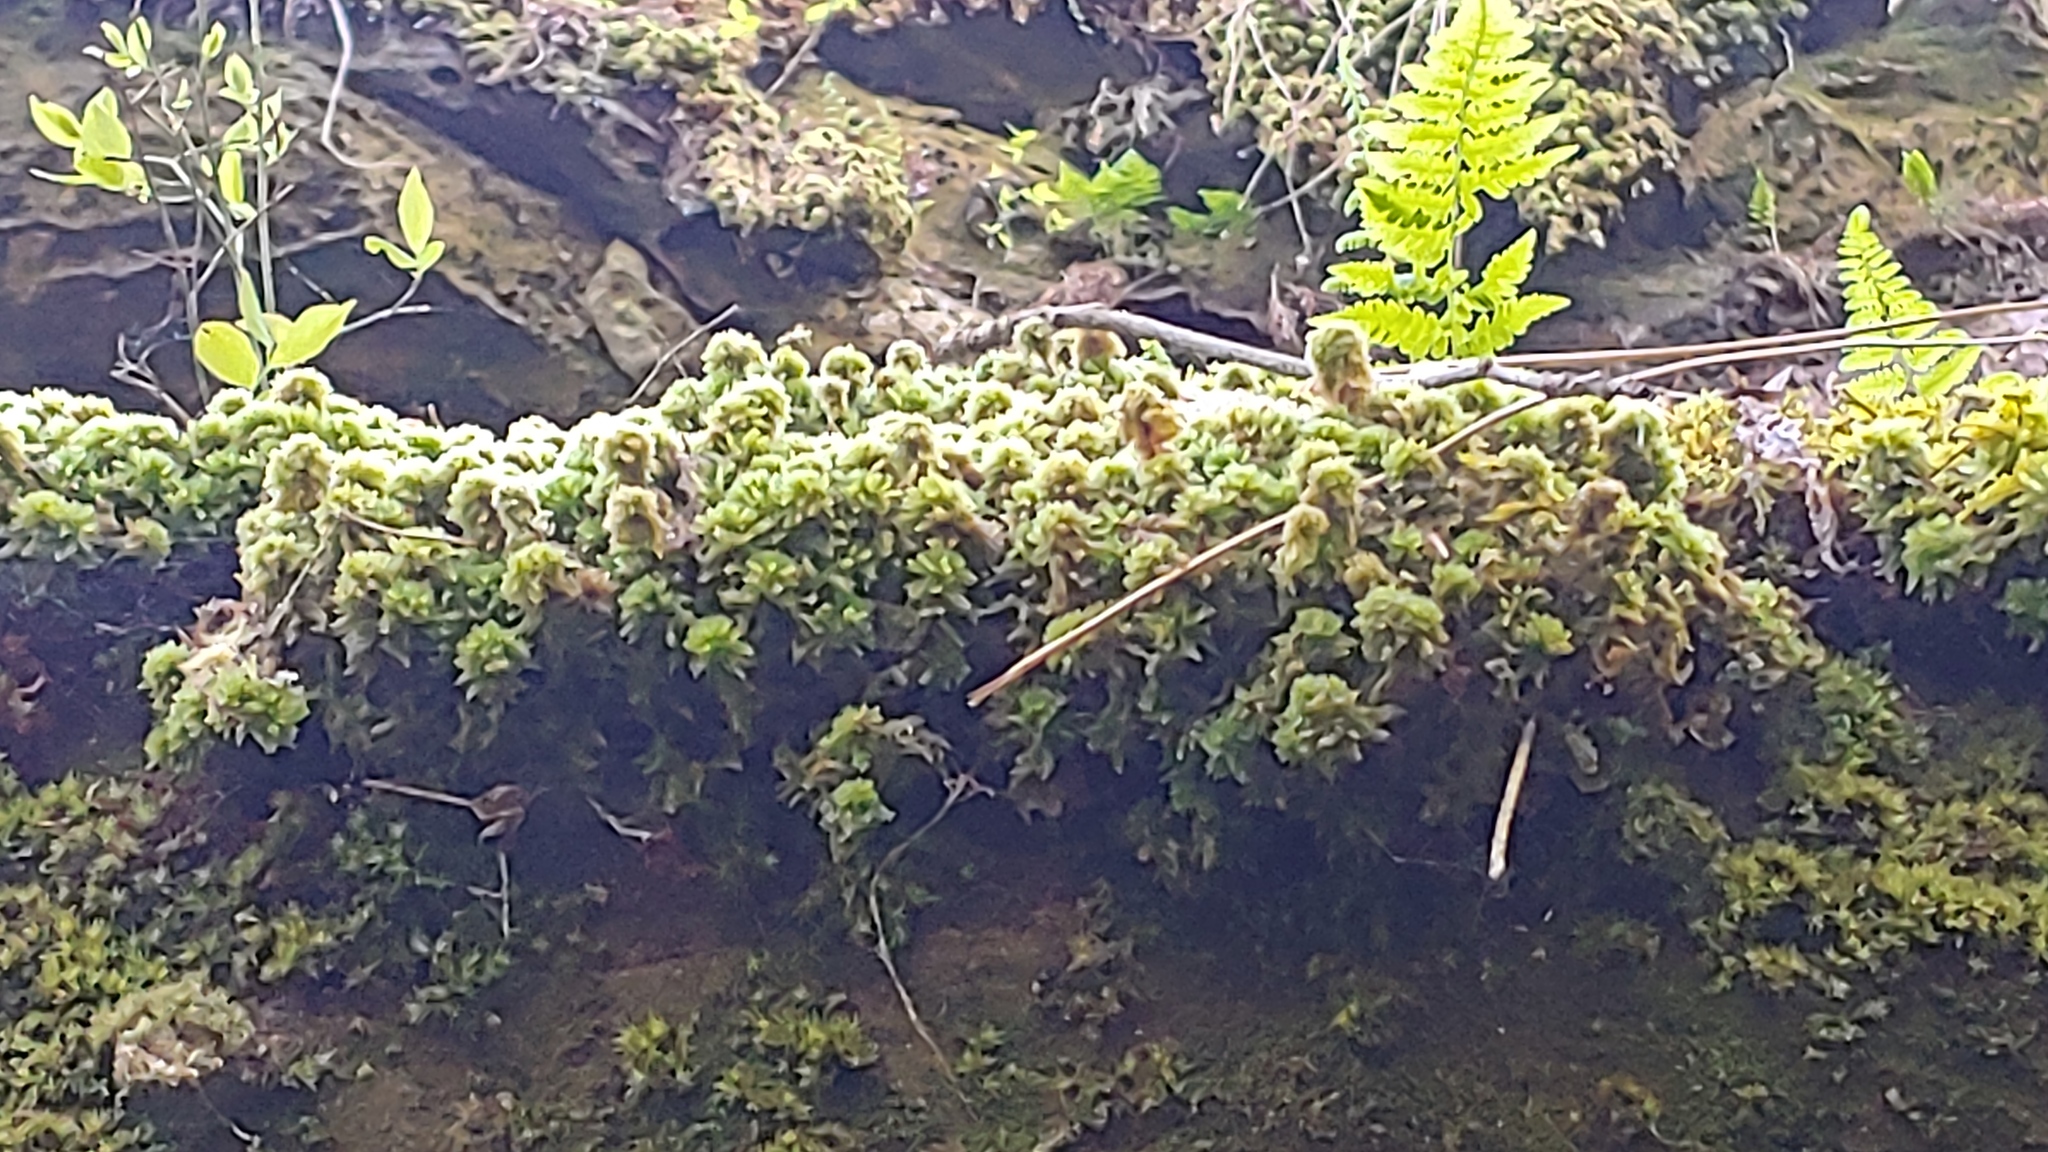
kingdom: Plantae
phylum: Bryophyta
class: Sphagnopsida
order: Sphagnales
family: Sphagnaceae
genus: Sphagnum
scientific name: Sphagnum compactum
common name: Compact peat moss
